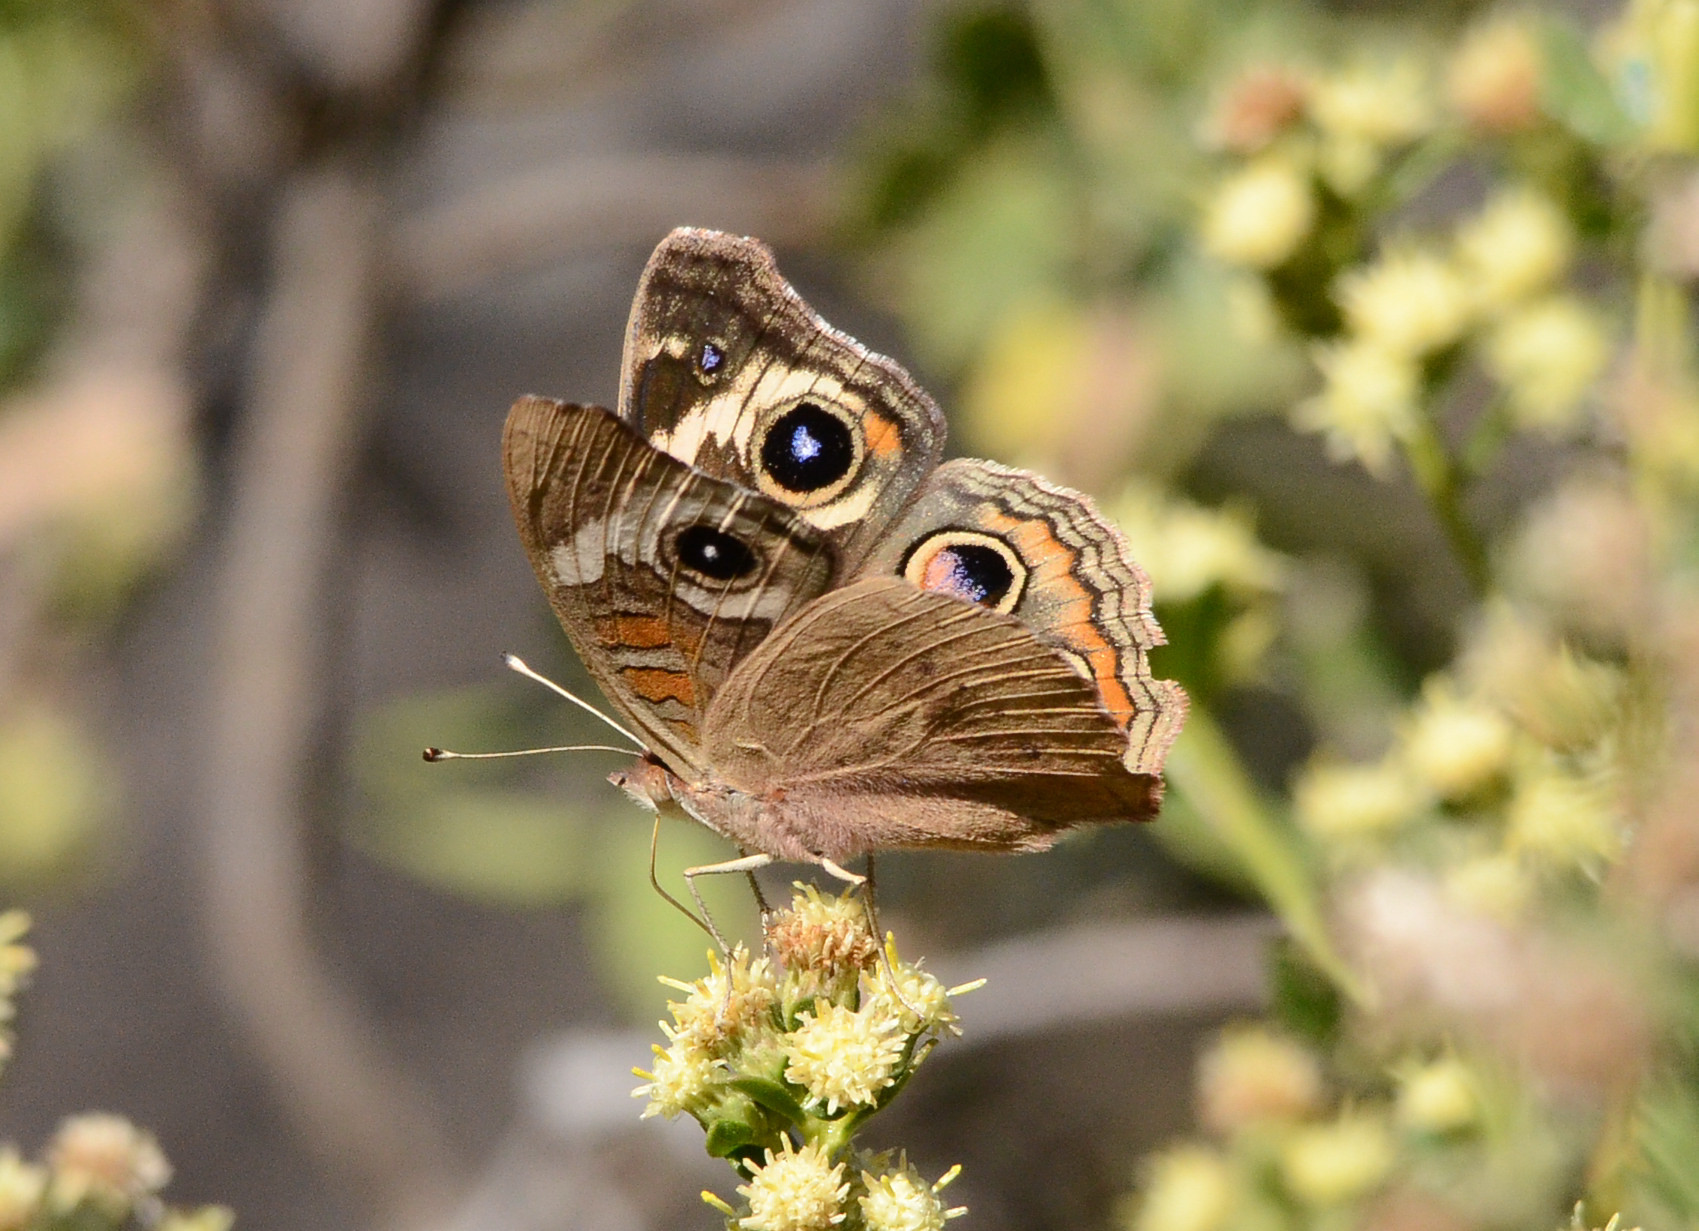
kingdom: Animalia
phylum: Arthropoda
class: Insecta
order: Lepidoptera
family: Nymphalidae
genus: Junonia
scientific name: Junonia grisea
